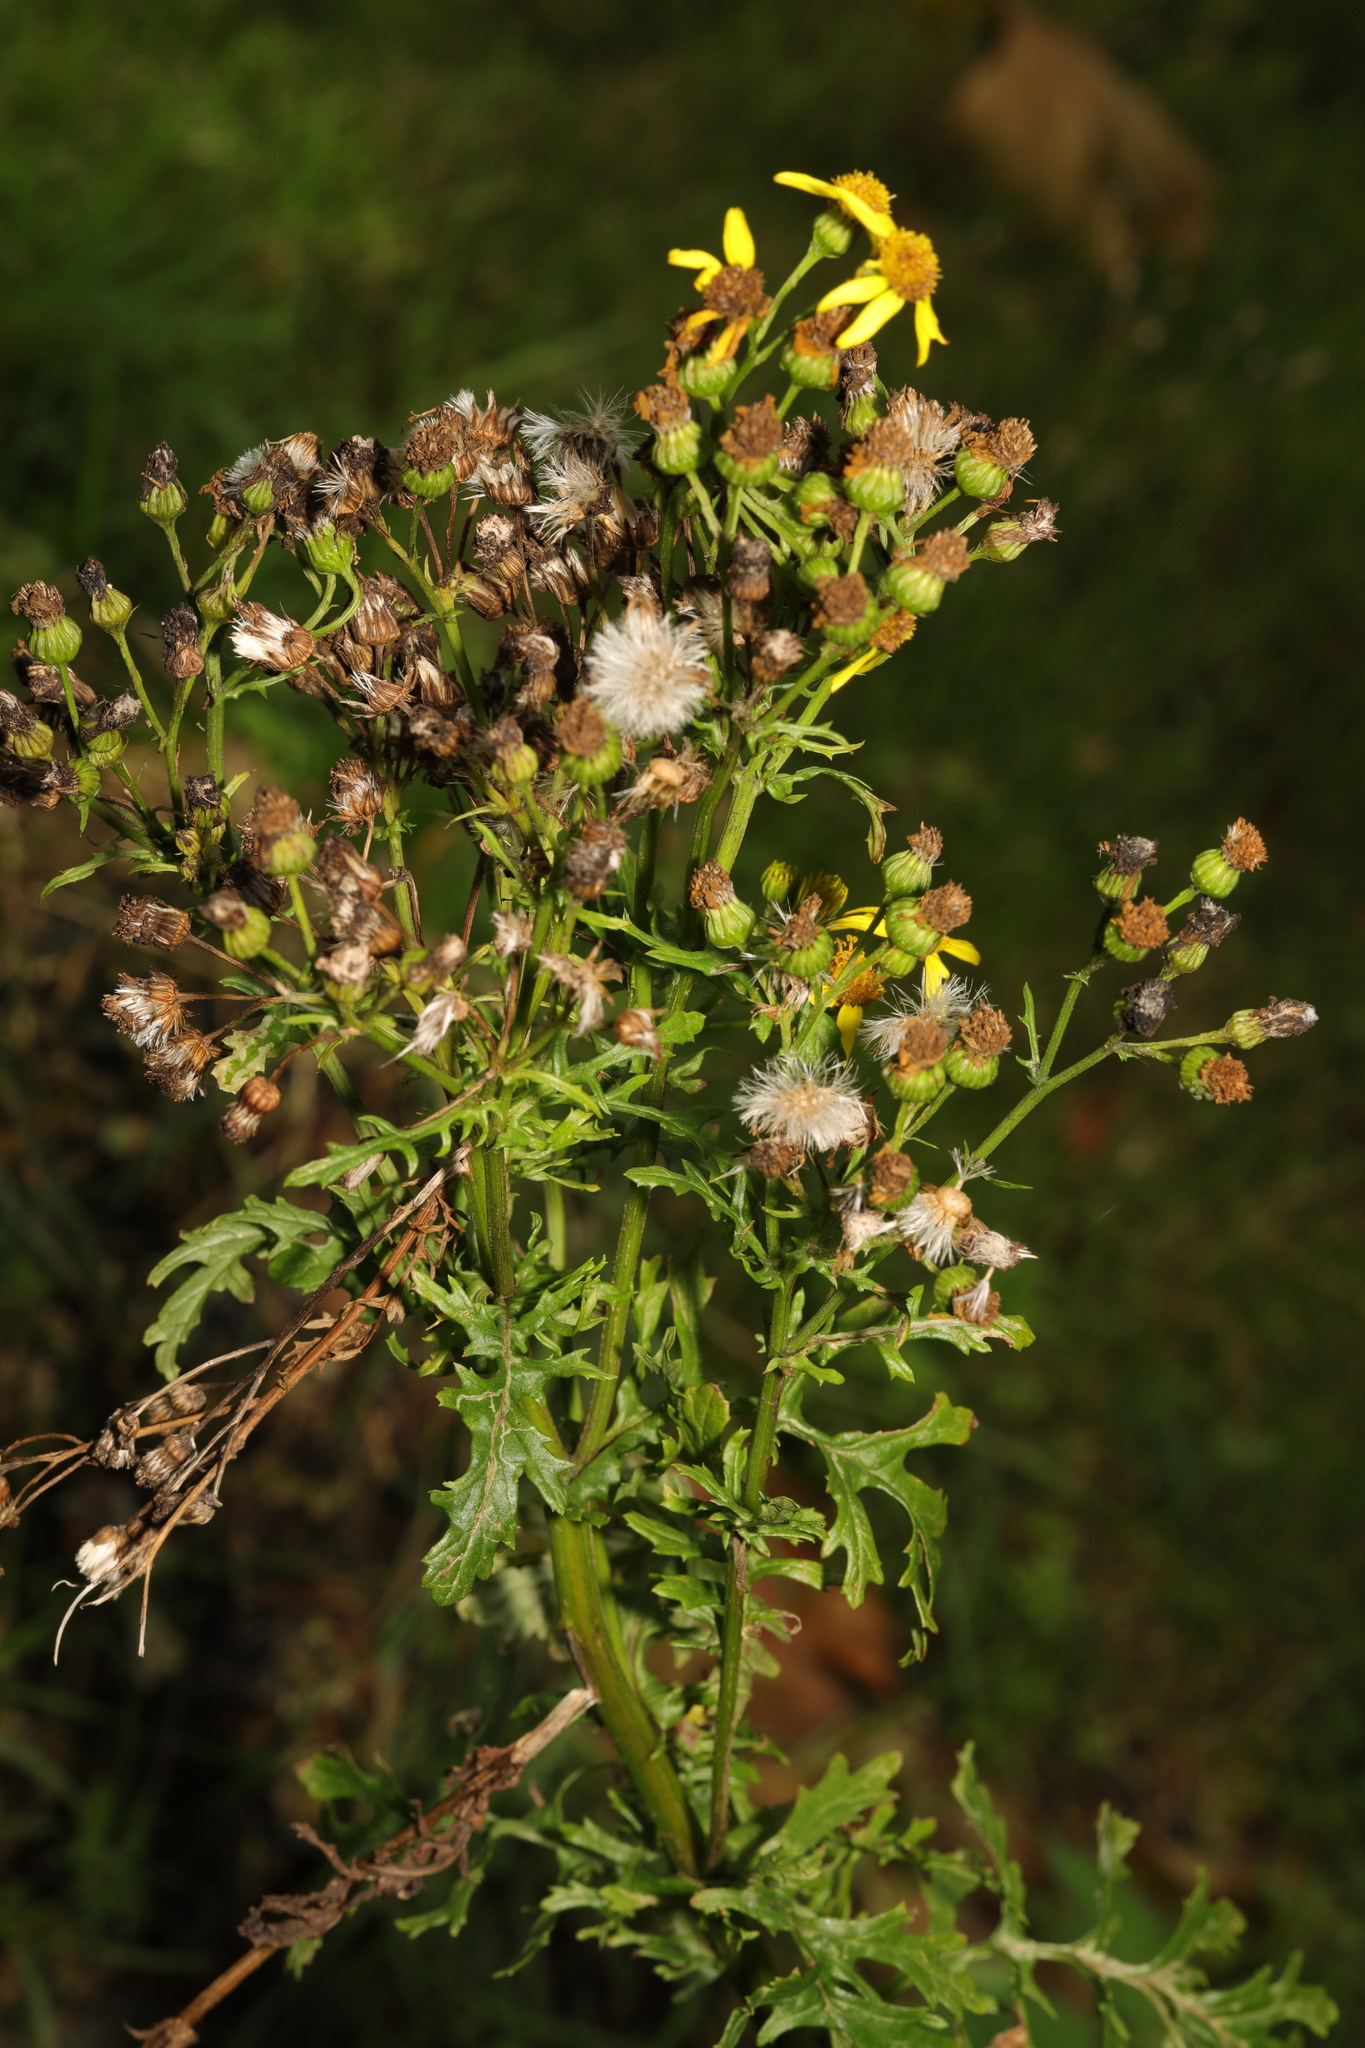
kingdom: Plantae
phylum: Tracheophyta
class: Magnoliopsida
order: Asterales
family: Asteraceae
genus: Jacobaea
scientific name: Jacobaea vulgaris
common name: Stinking willie
